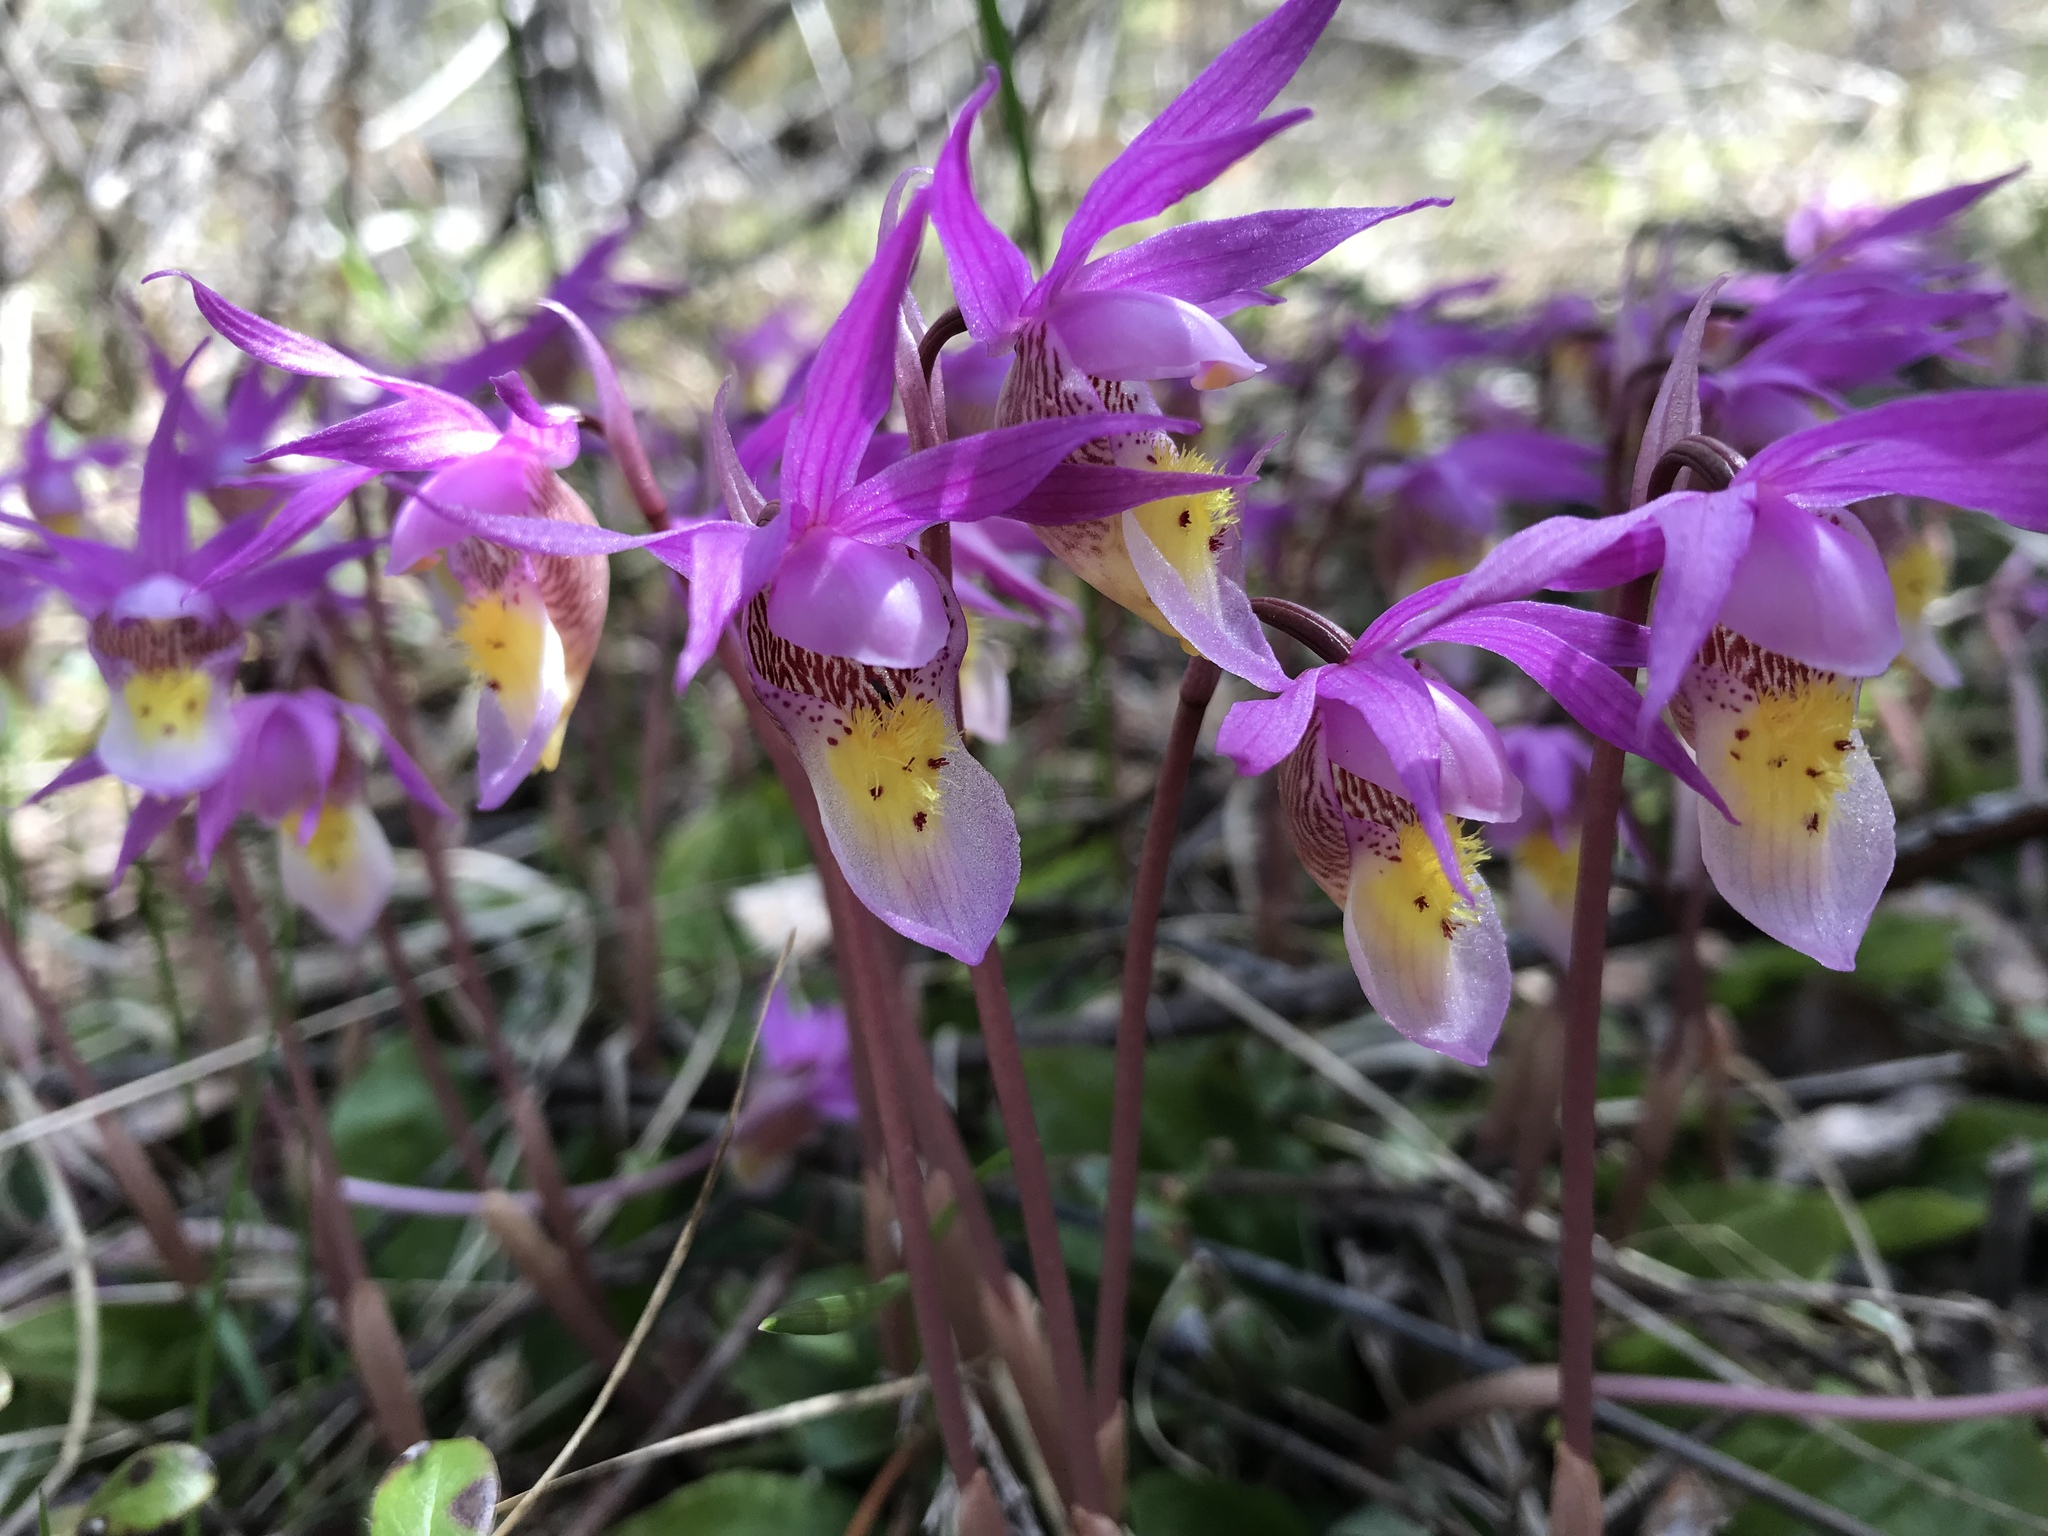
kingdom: Plantae
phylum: Tracheophyta
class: Liliopsida
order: Asparagales
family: Orchidaceae
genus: Calypso
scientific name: Calypso bulbosa
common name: Calypso
